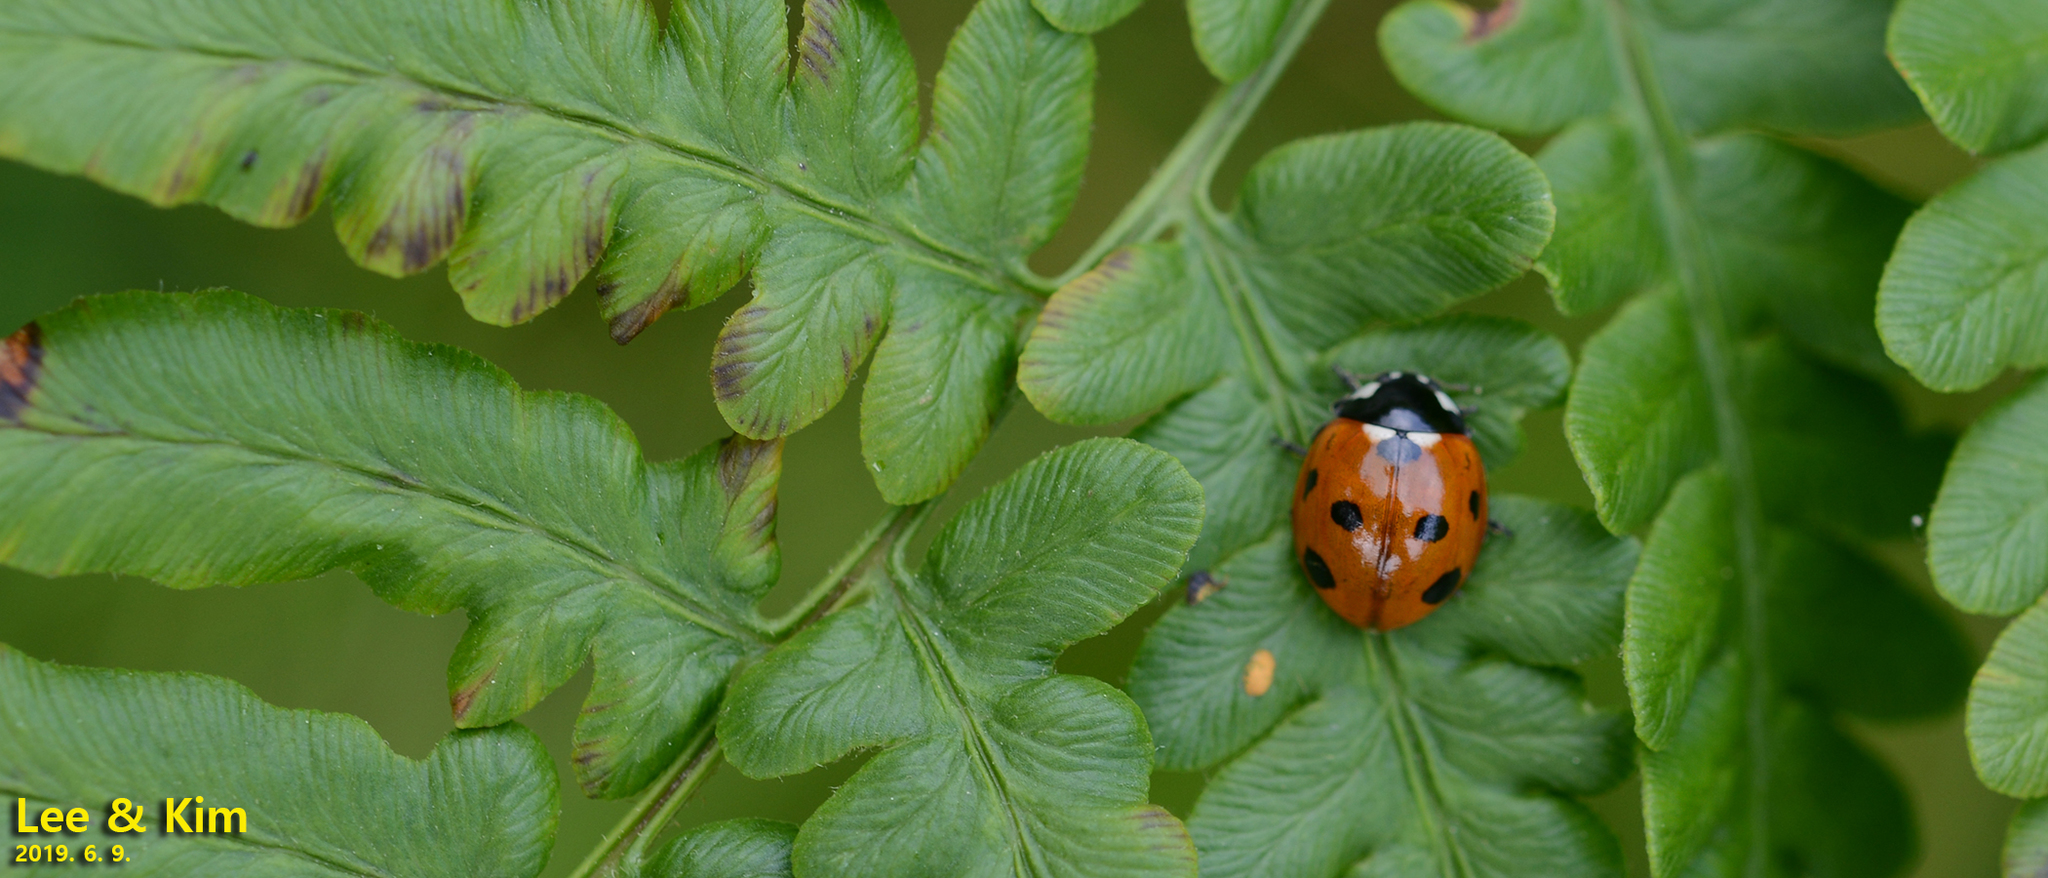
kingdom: Animalia
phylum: Arthropoda
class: Insecta
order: Coleoptera
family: Coccinellidae
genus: Coccinella
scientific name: Coccinella septempunctata
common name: Sevenspotted lady beetle
